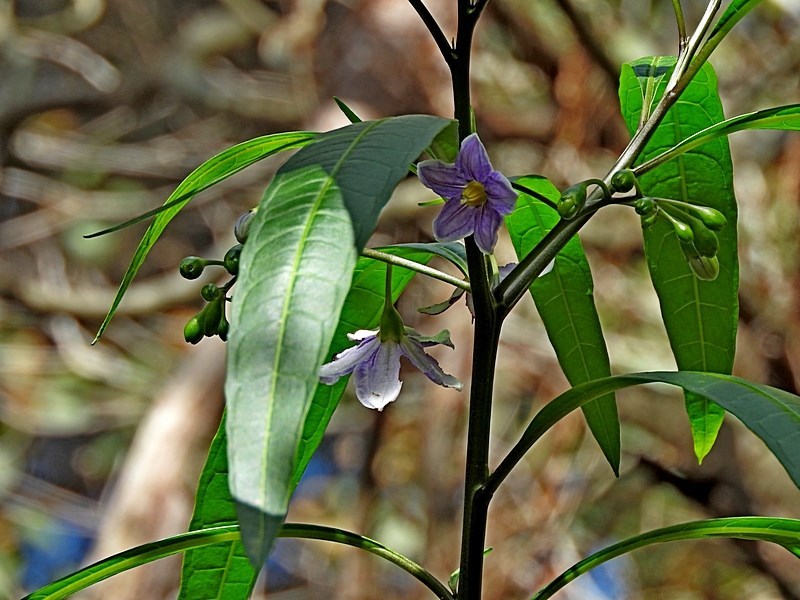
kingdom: Plantae
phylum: Tracheophyta
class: Magnoliopsida
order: Solanales
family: Solanaceae
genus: Solanum
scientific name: Solanum aviculare
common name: New zealand nightshade
